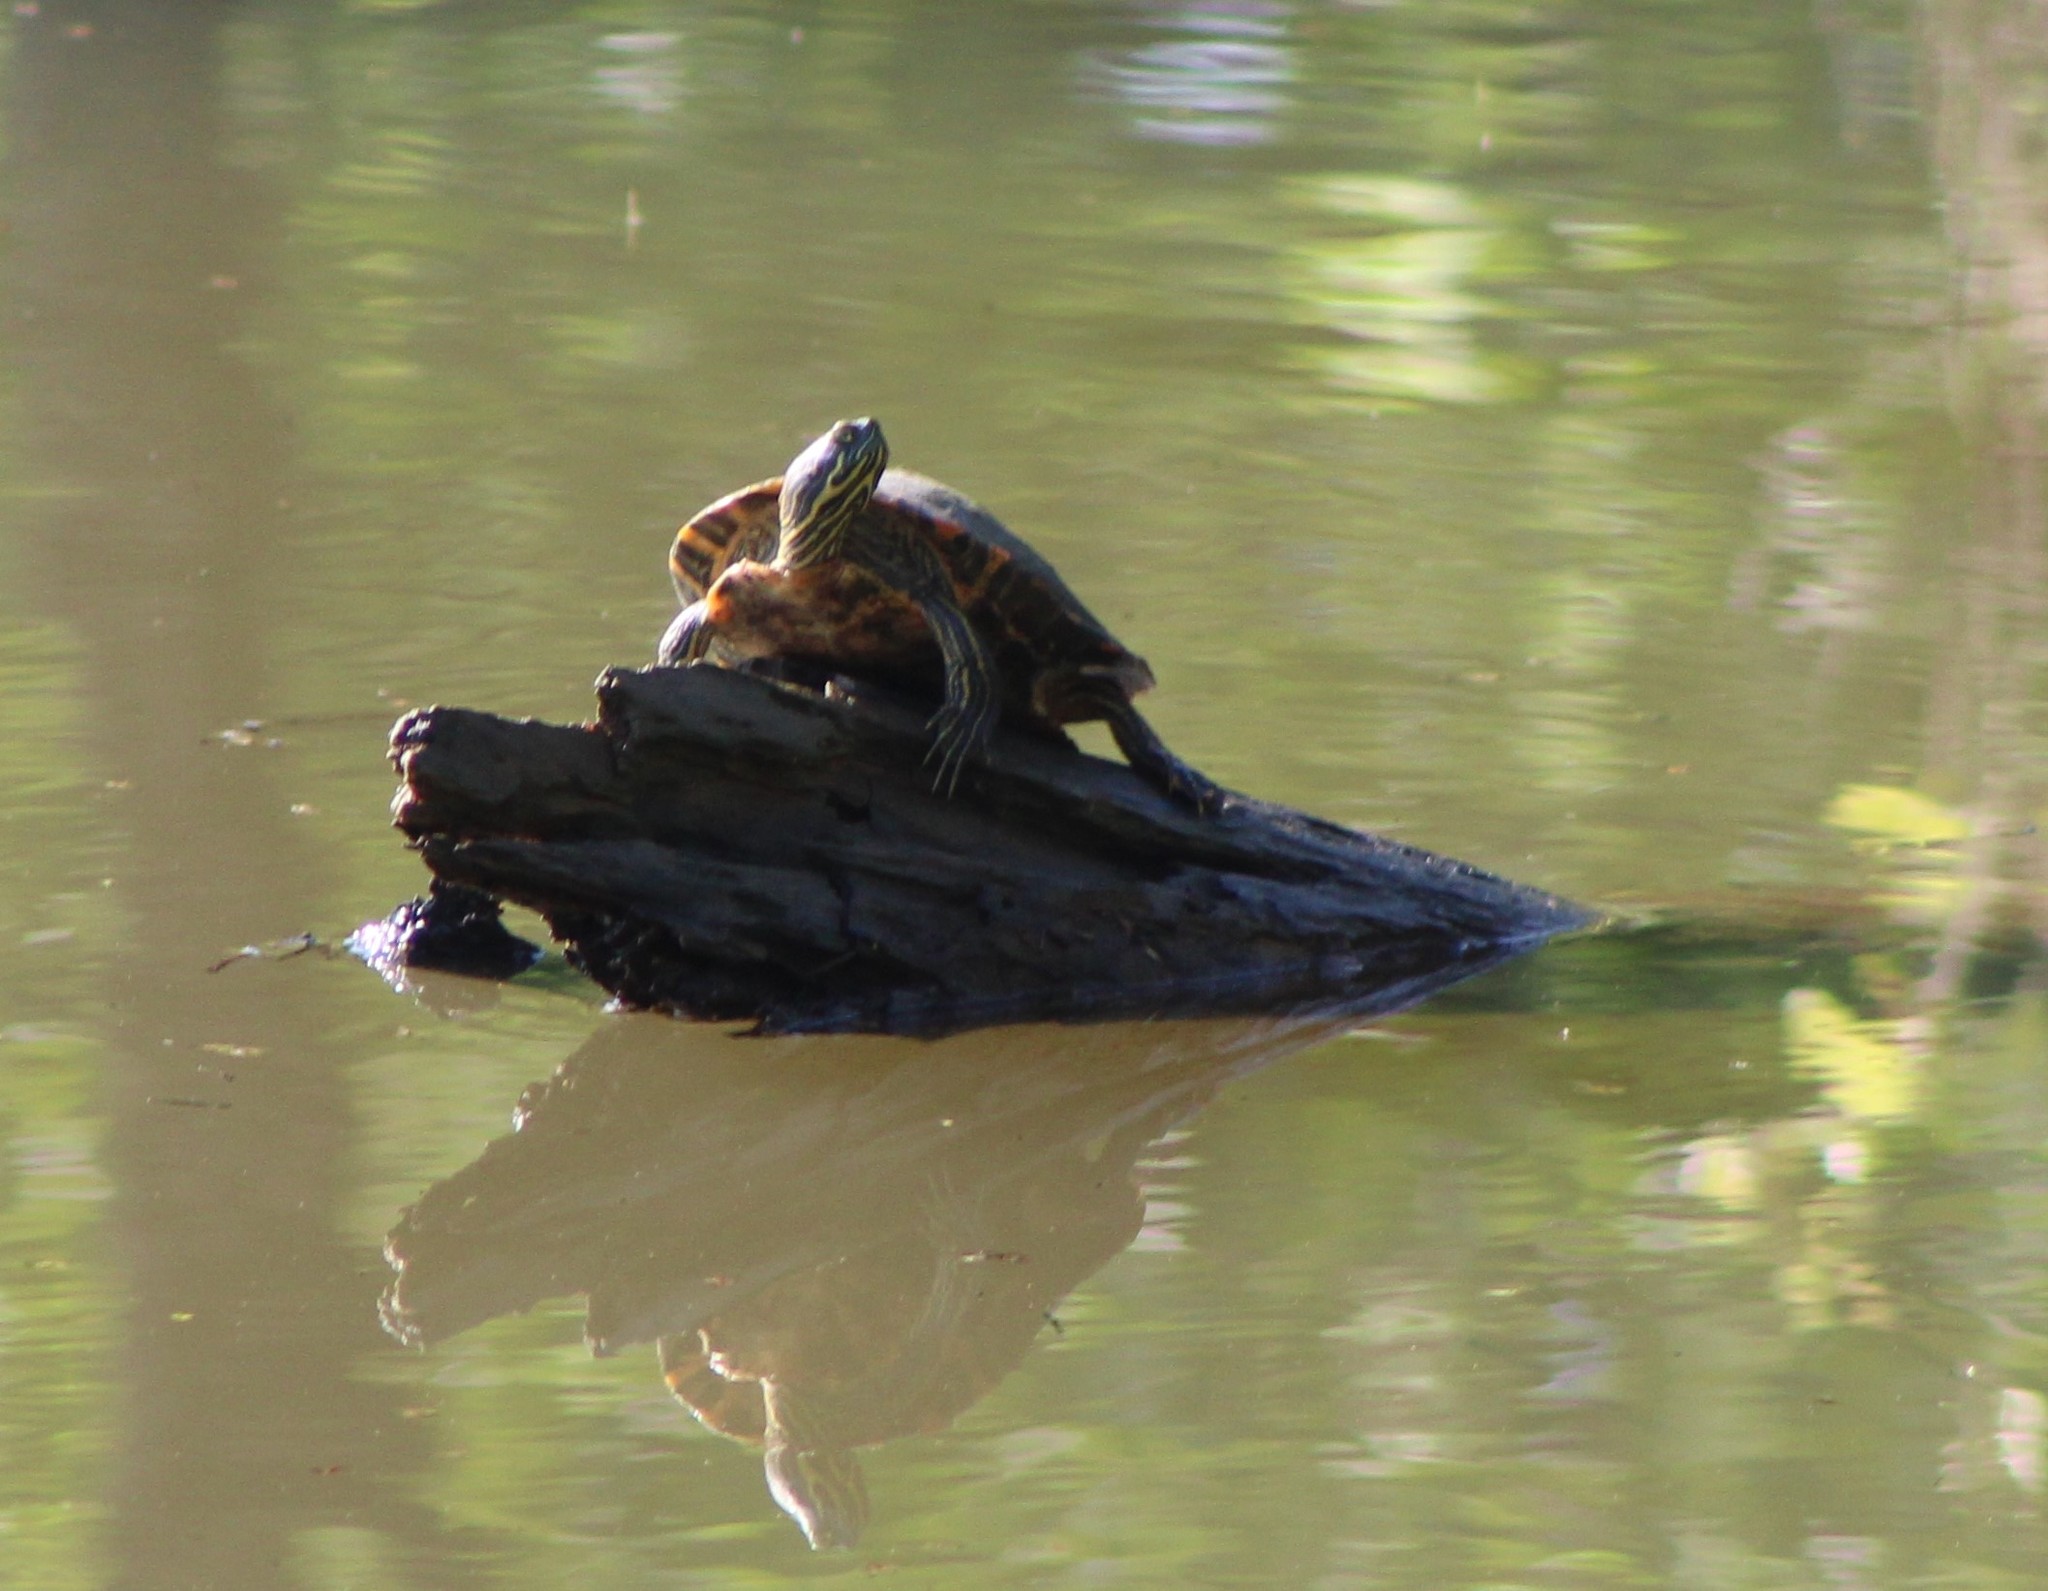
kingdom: Animalia
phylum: Chordata
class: Testudines
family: Emydidae
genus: Trachemys
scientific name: Trachemys scripta
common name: Slider
